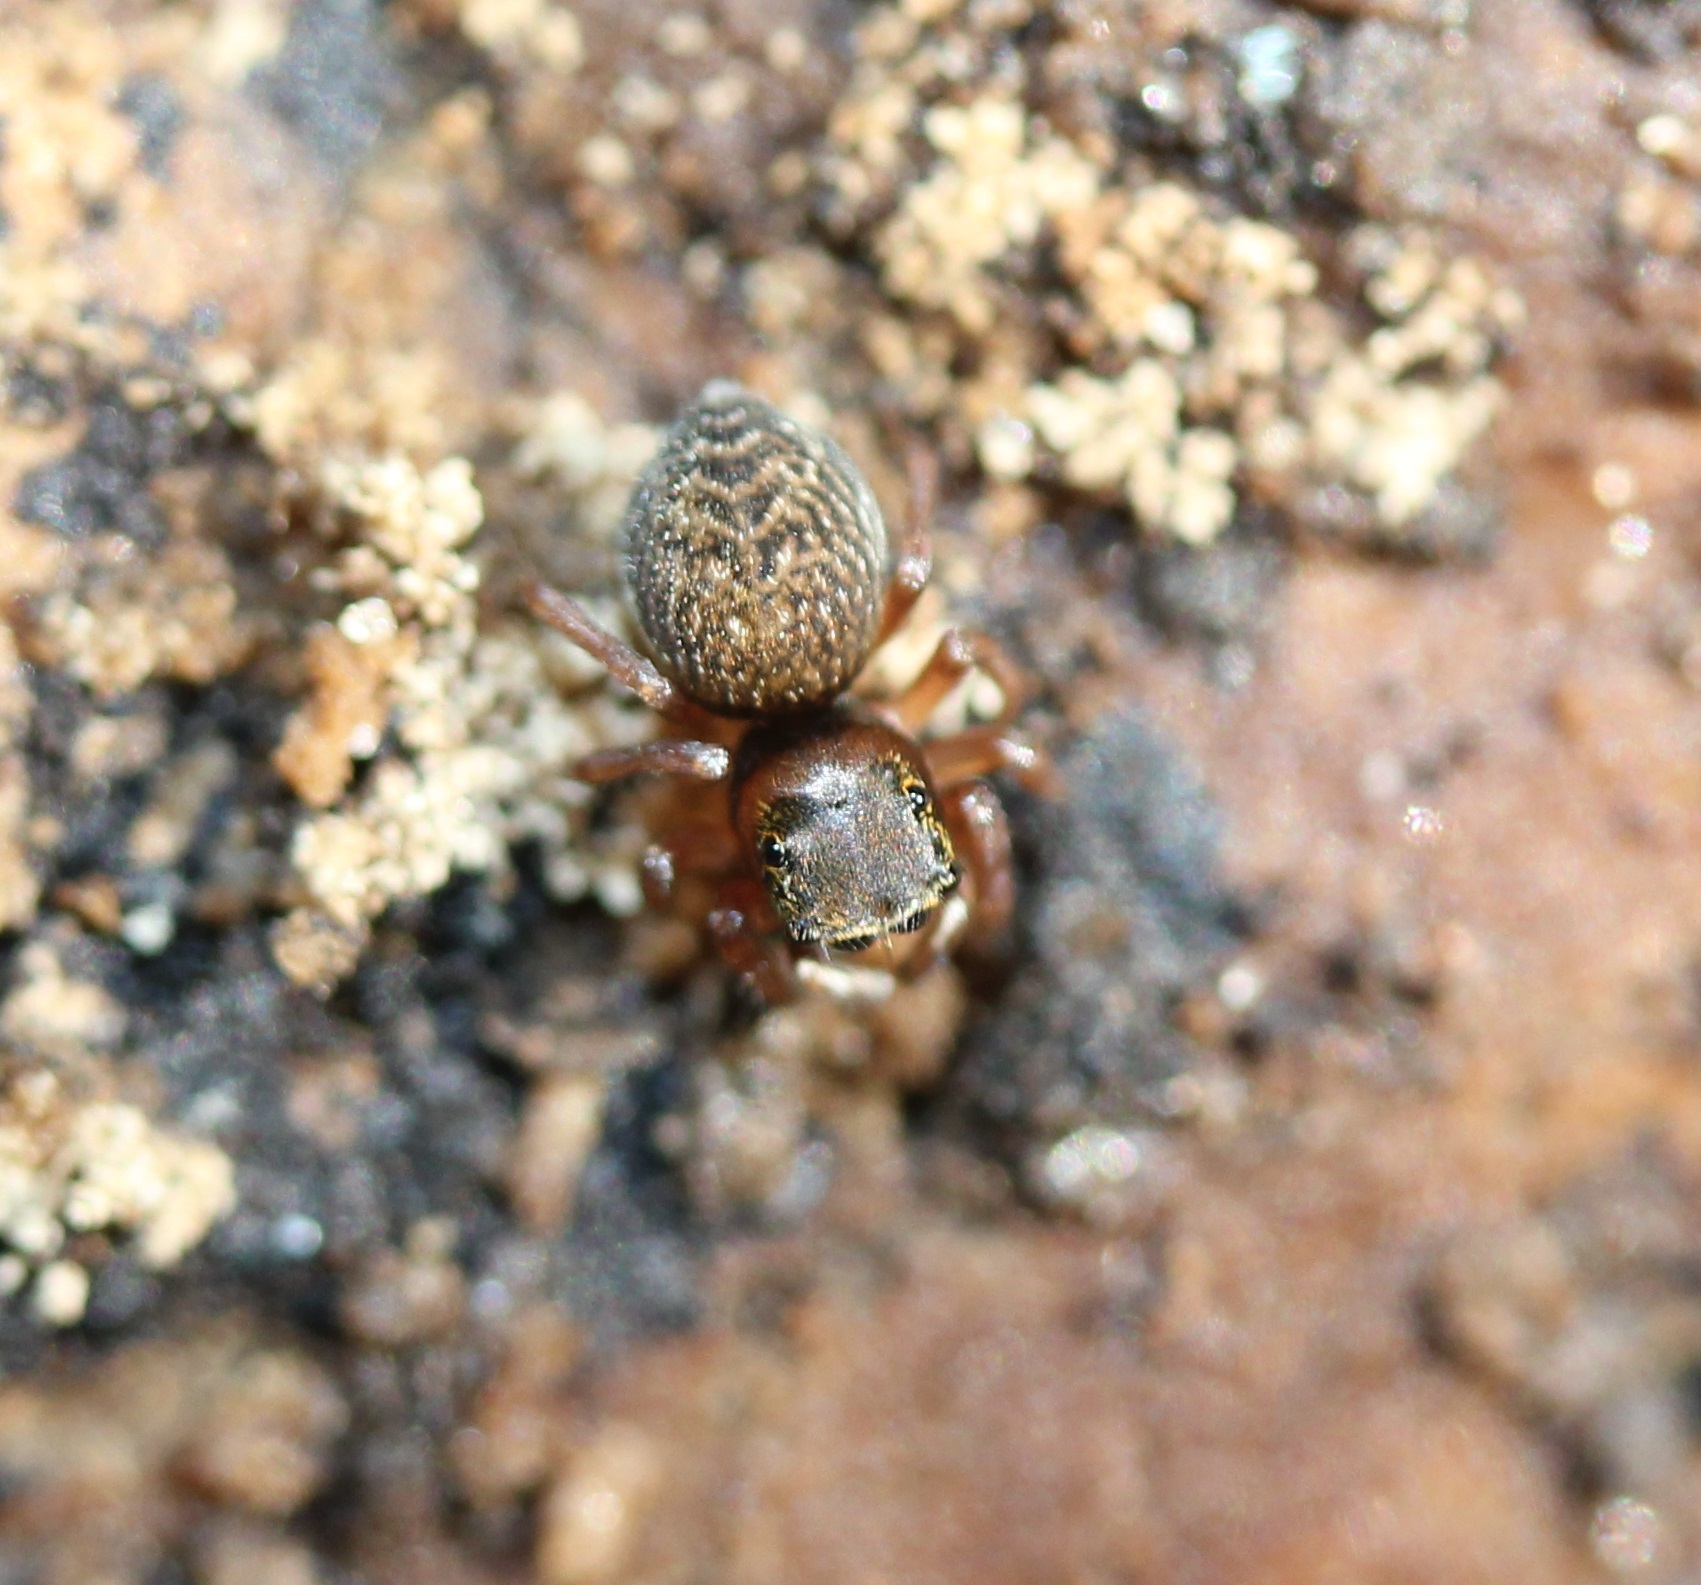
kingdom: Animalia
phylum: Arthropoda
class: Arachnida
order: Araneae
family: Salticidae
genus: Chinattus
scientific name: Chinattus parvulus
